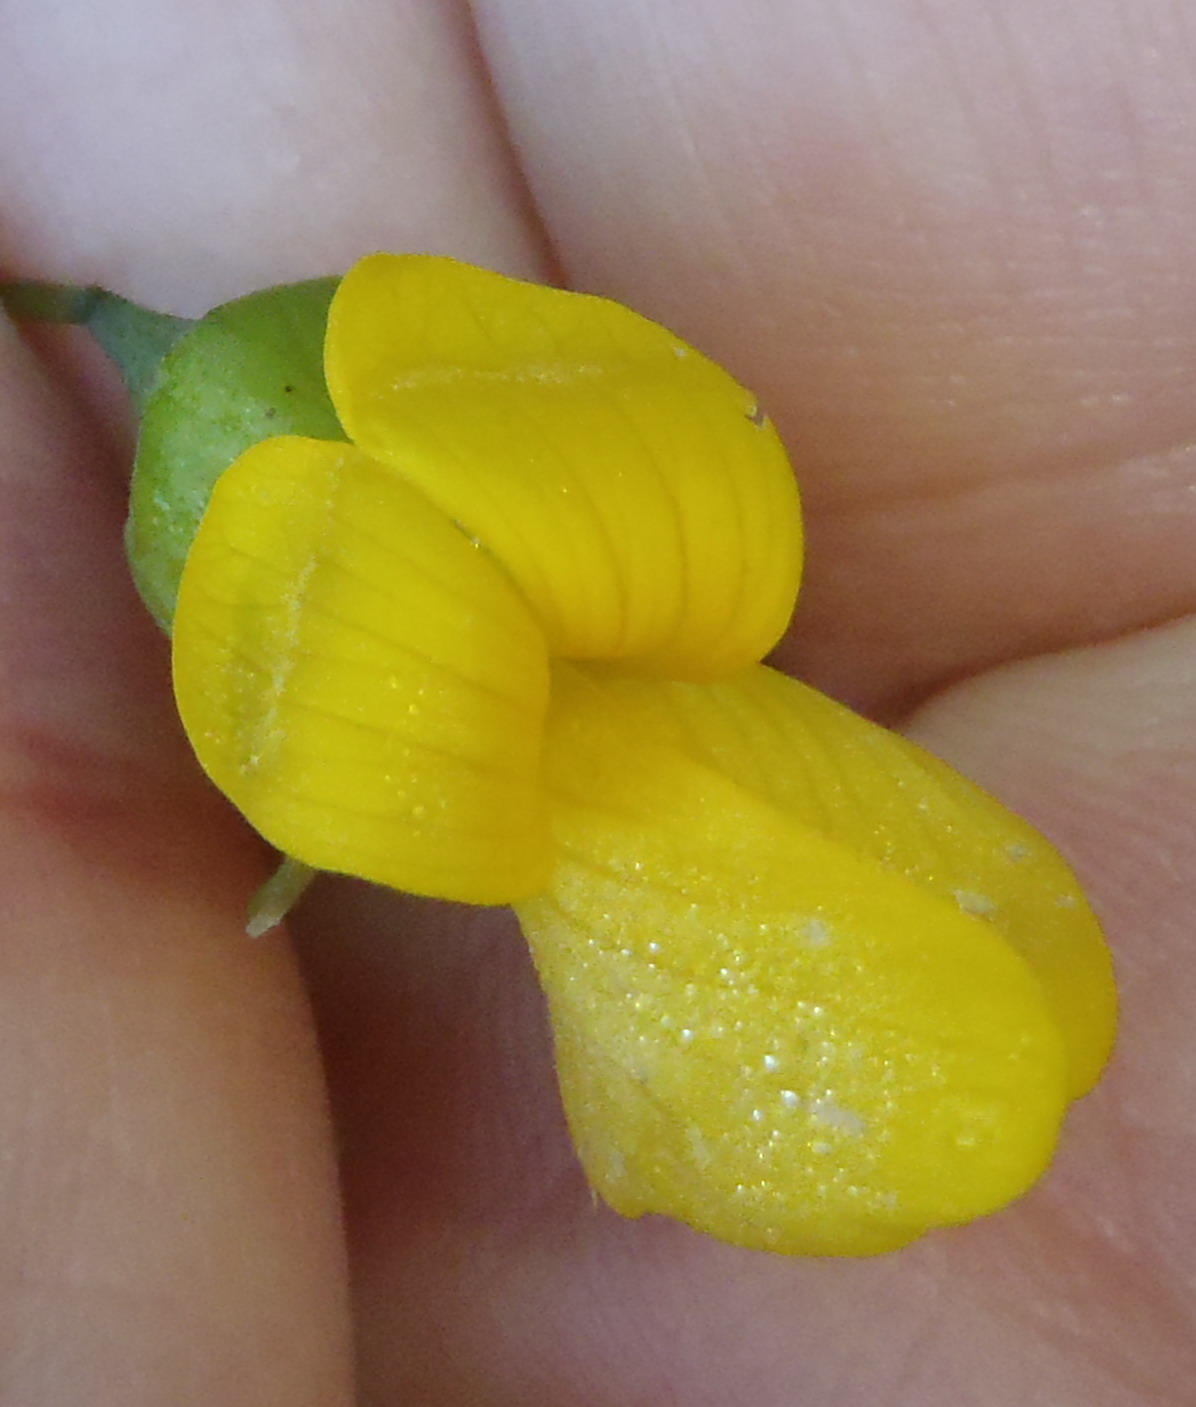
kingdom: Plantae
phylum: Tracheophyta
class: Magnoliopsida
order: Fabales
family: Fabaceae
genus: Calpurnia
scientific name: Calpurnia glabrata
